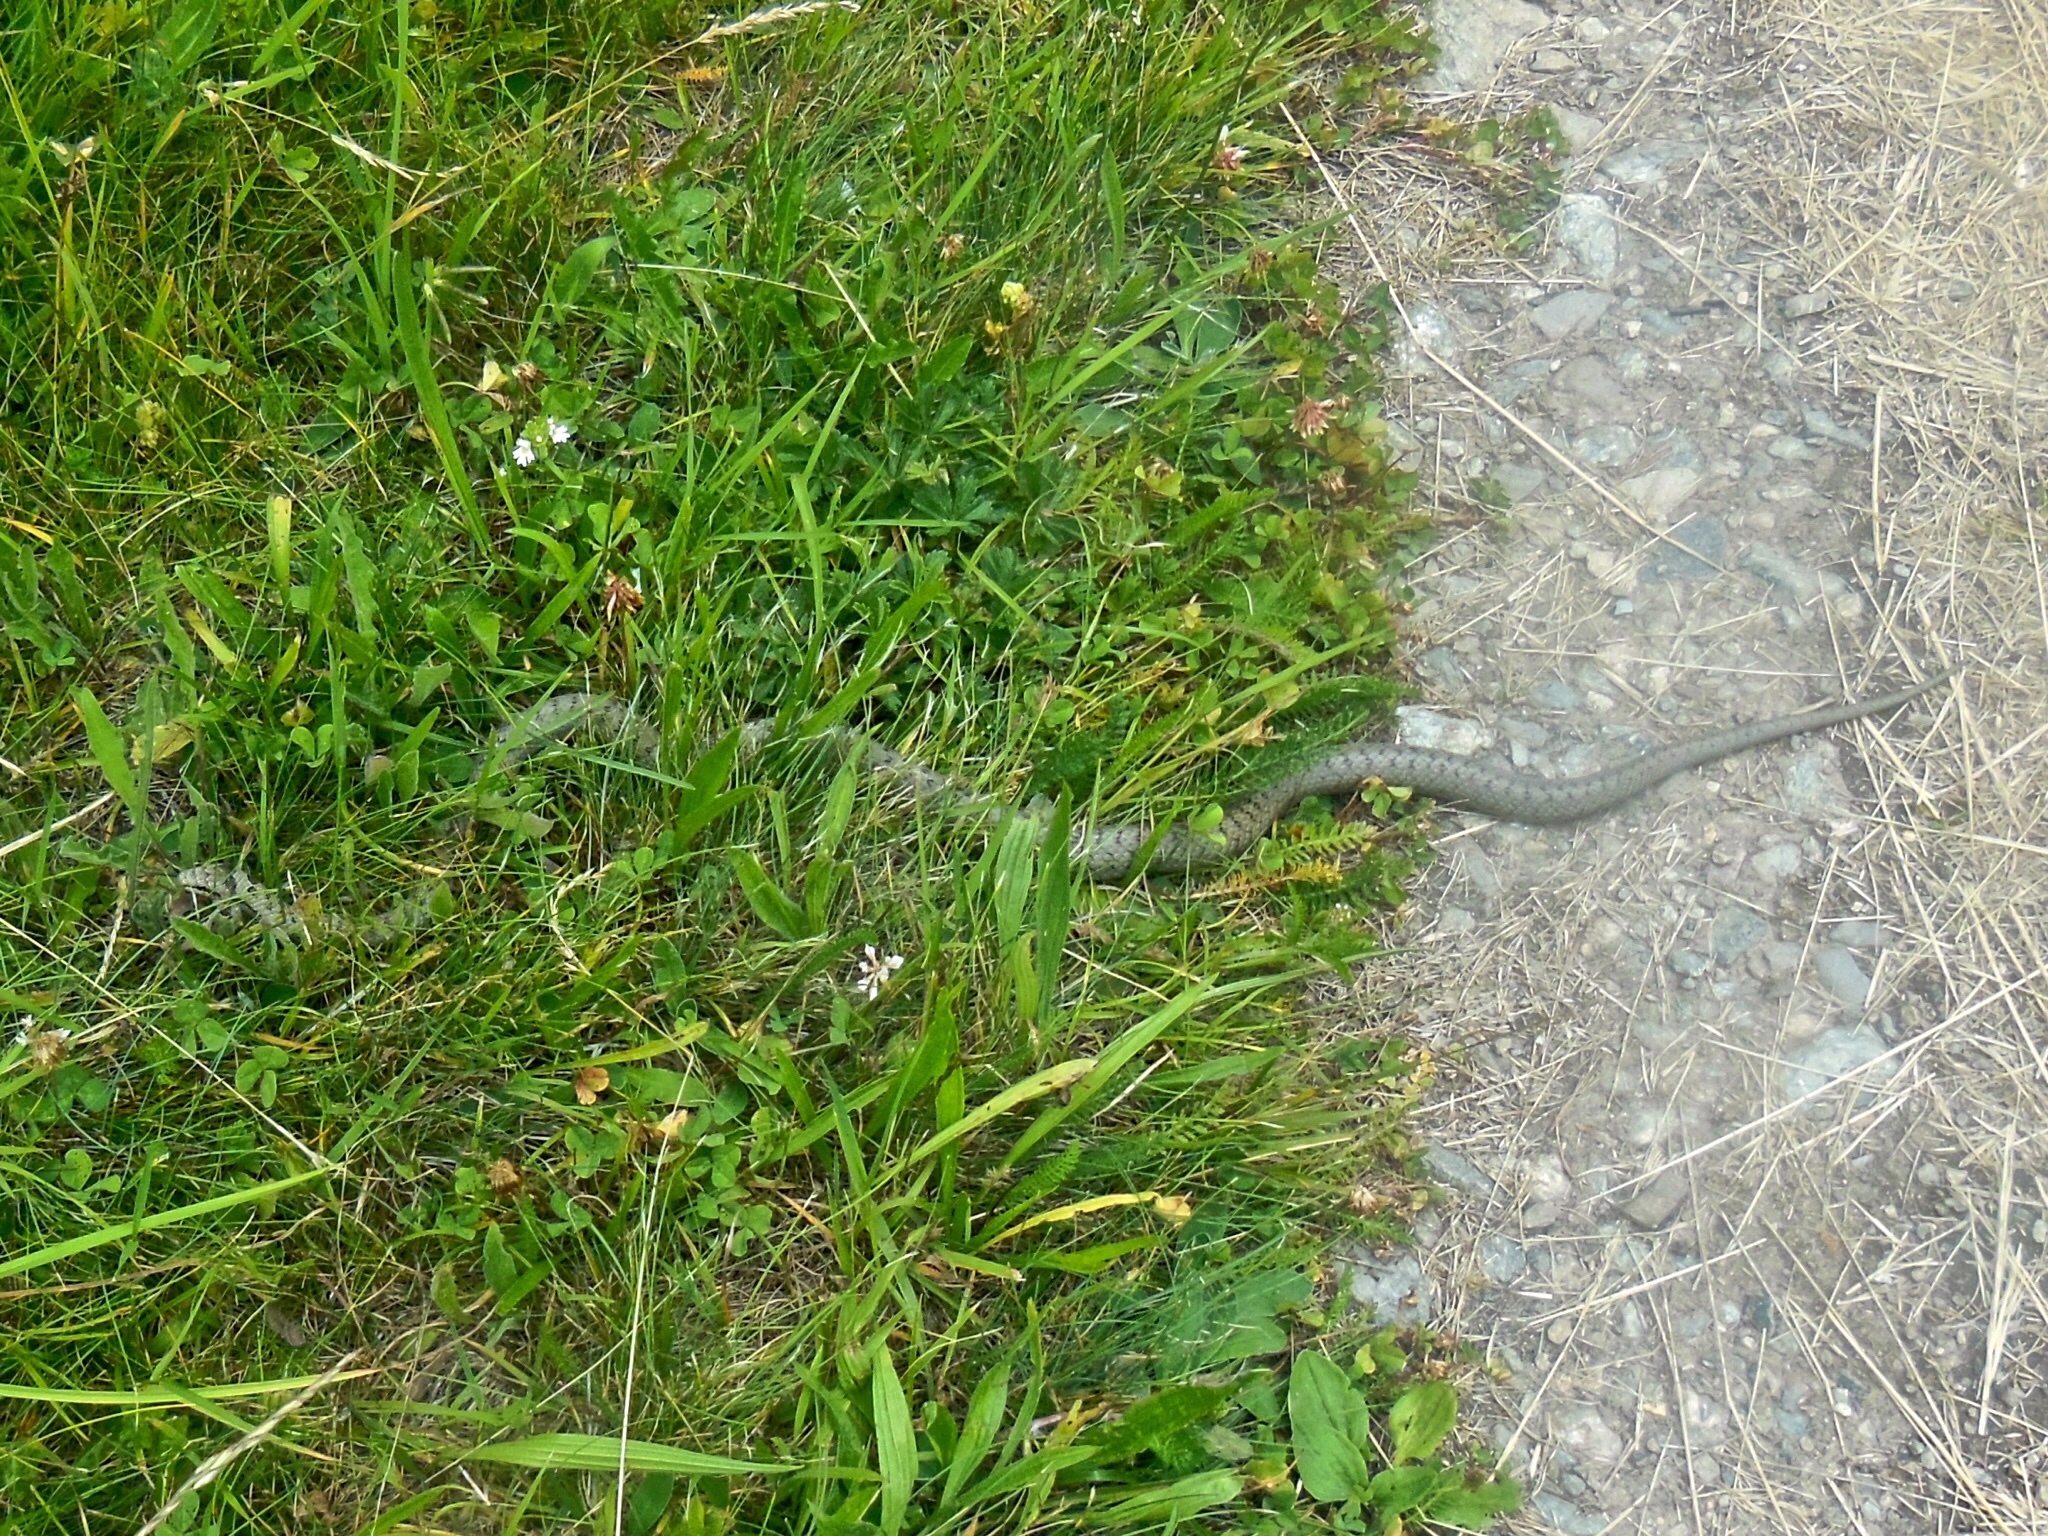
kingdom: Animalia
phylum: Chordata
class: Squamata
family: Colubridae
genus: Coronella
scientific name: Coronella austriaca
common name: Smooth snake
